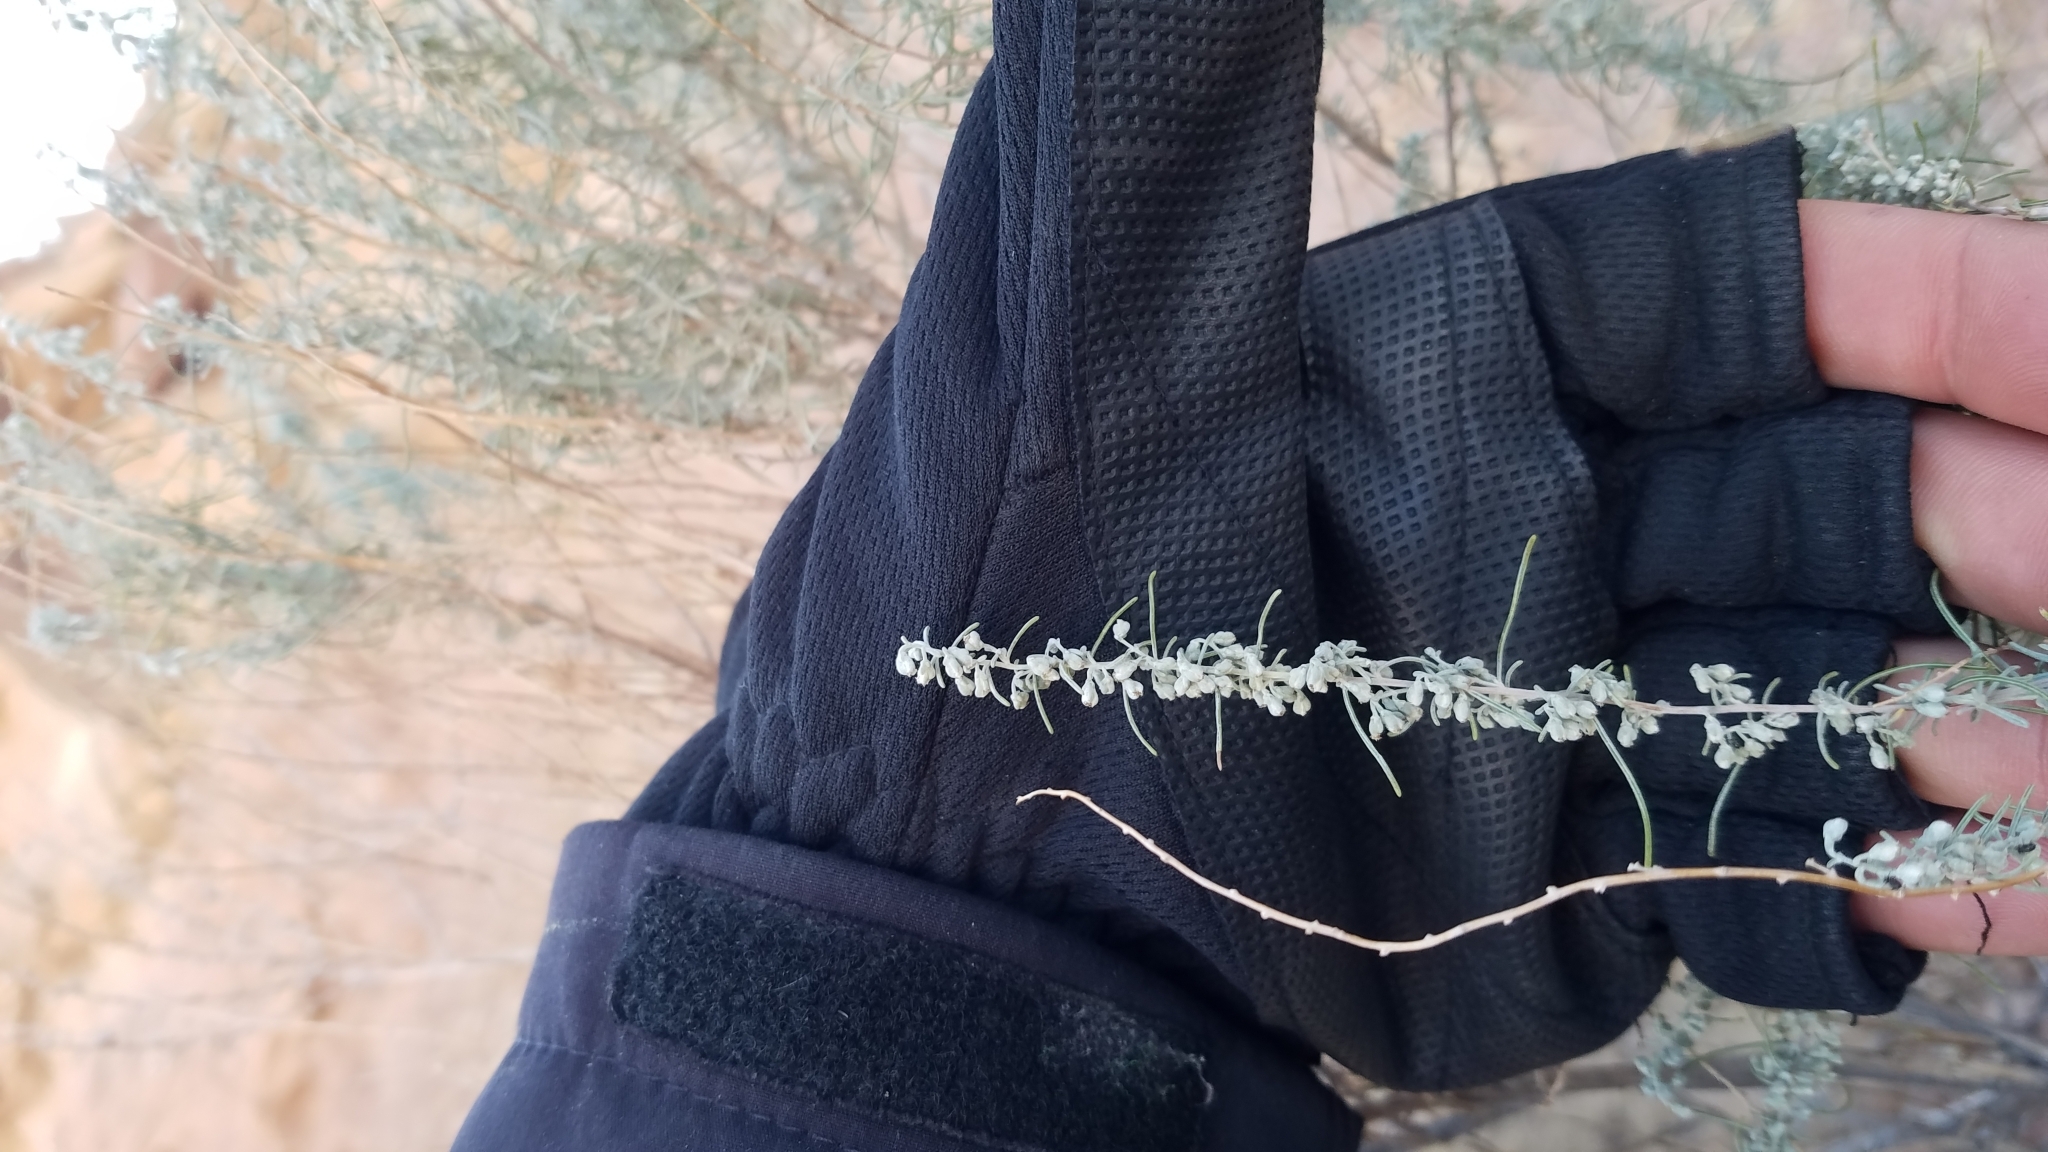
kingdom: Plantae
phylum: Tracheophyta
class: Magnoliopsida
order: Asterales
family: Asteraceae
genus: Artemisia
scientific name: Artemisia filifolia
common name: Sand-sage
